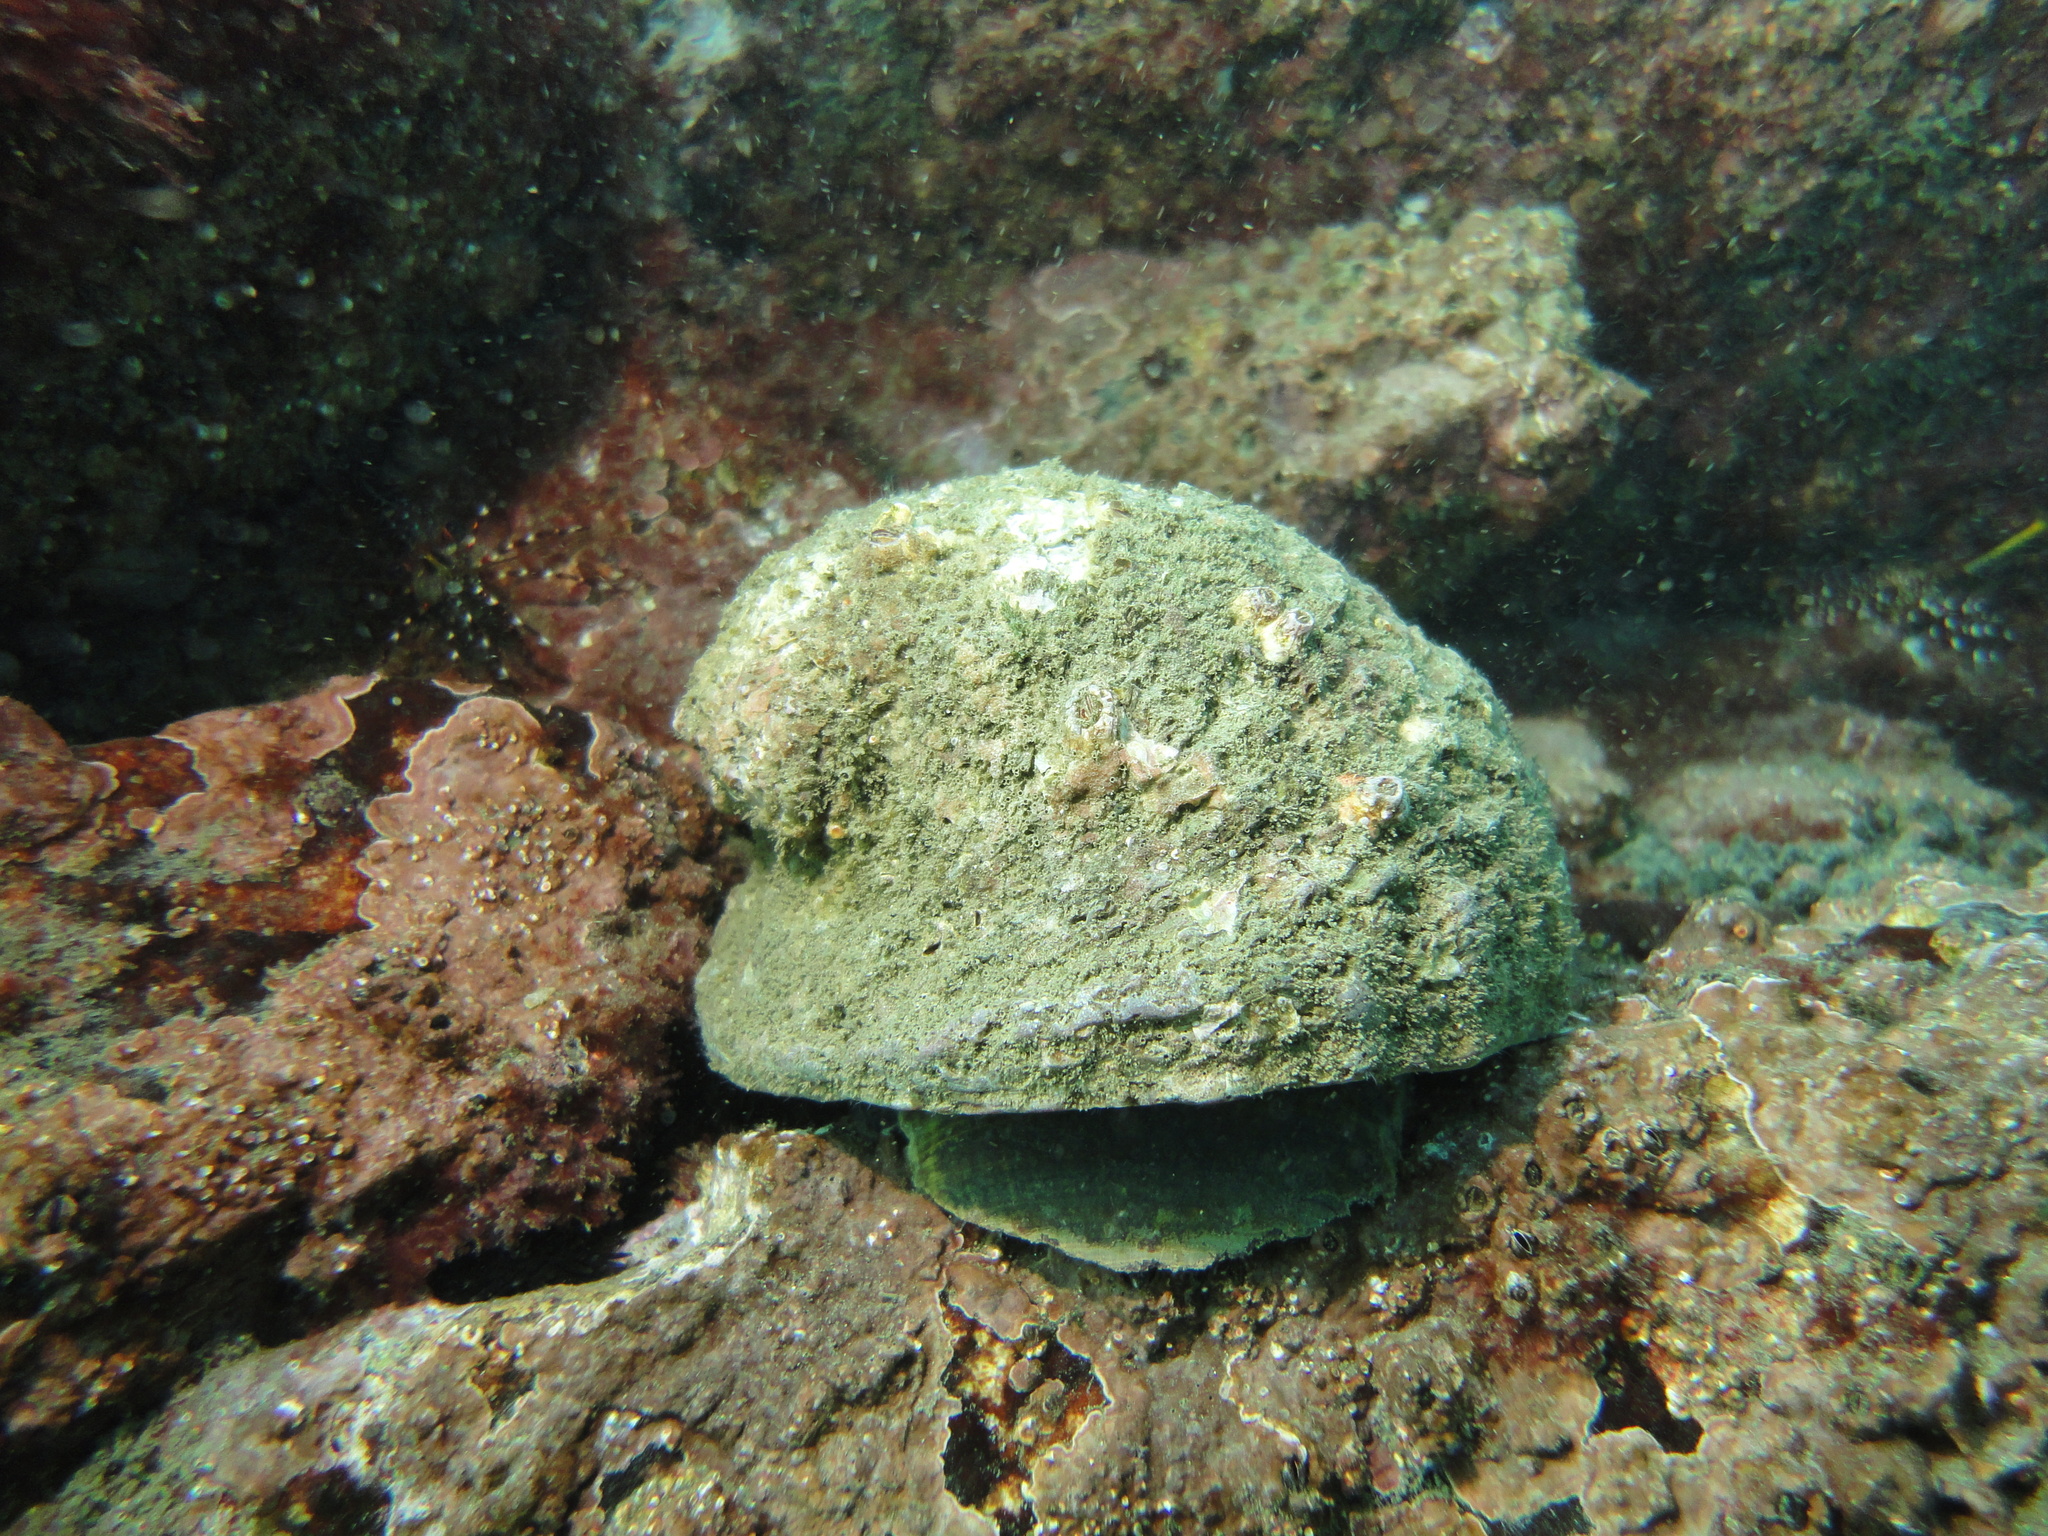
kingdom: Animalia
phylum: Mollusca
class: Gastropoda
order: Neogastropoda
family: Muricidae
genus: Concholepas
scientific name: Concholepas concholepas
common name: Chilean abalone
